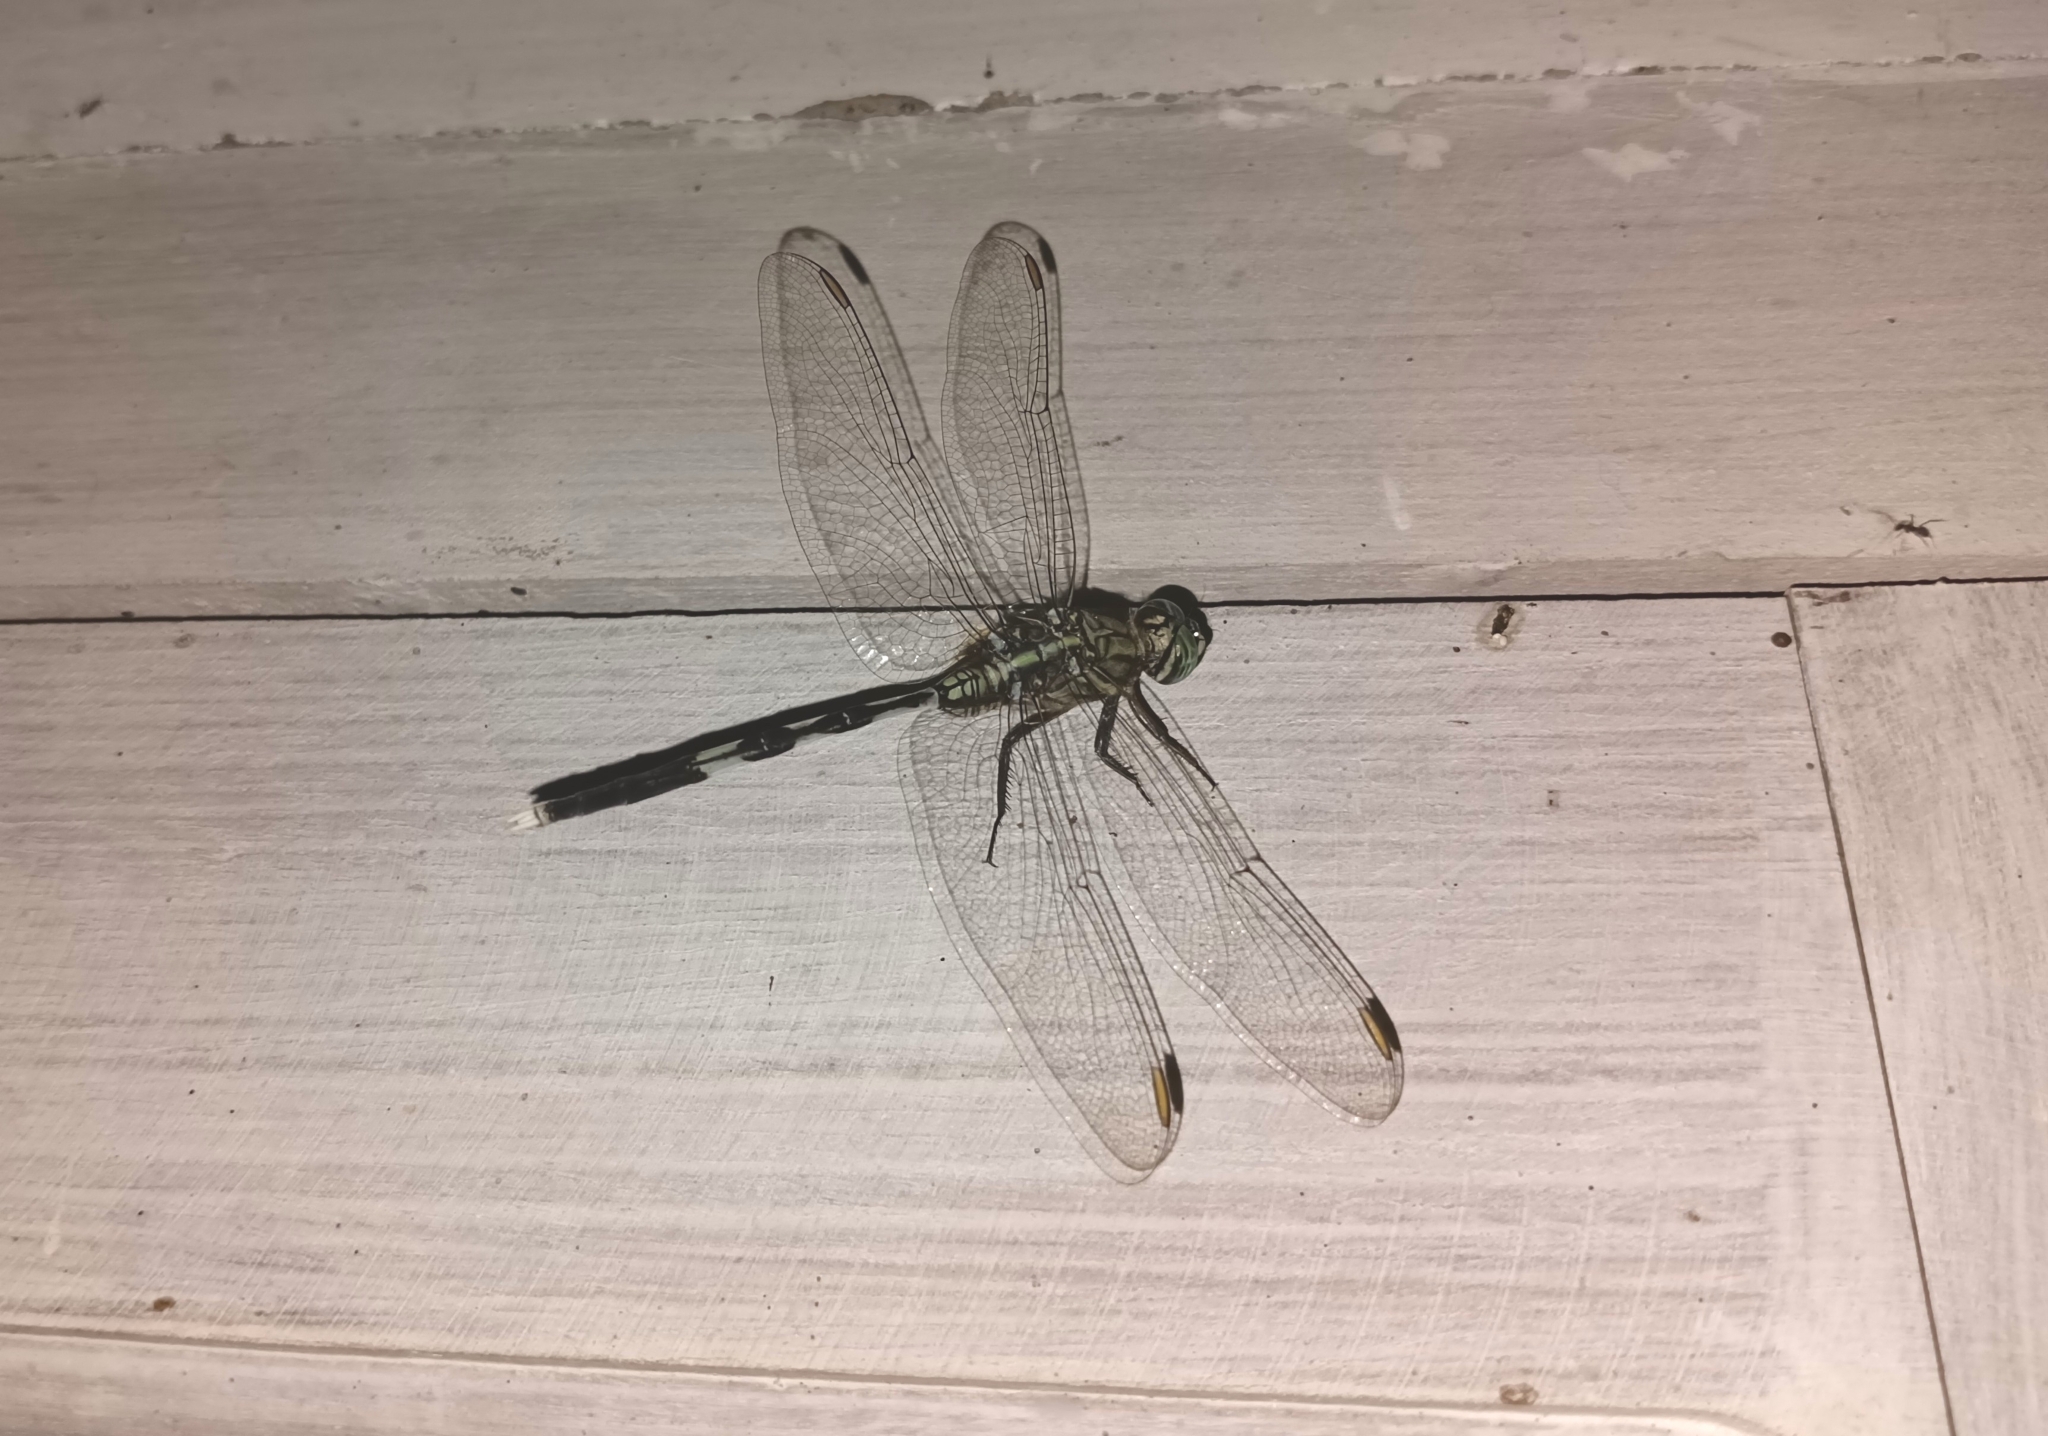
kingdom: Animalia
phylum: Arthropoda
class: Insecta
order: Odonata
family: Libellulidae
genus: Orthetrum
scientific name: Orthetrum sabina
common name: Slender skimmer
